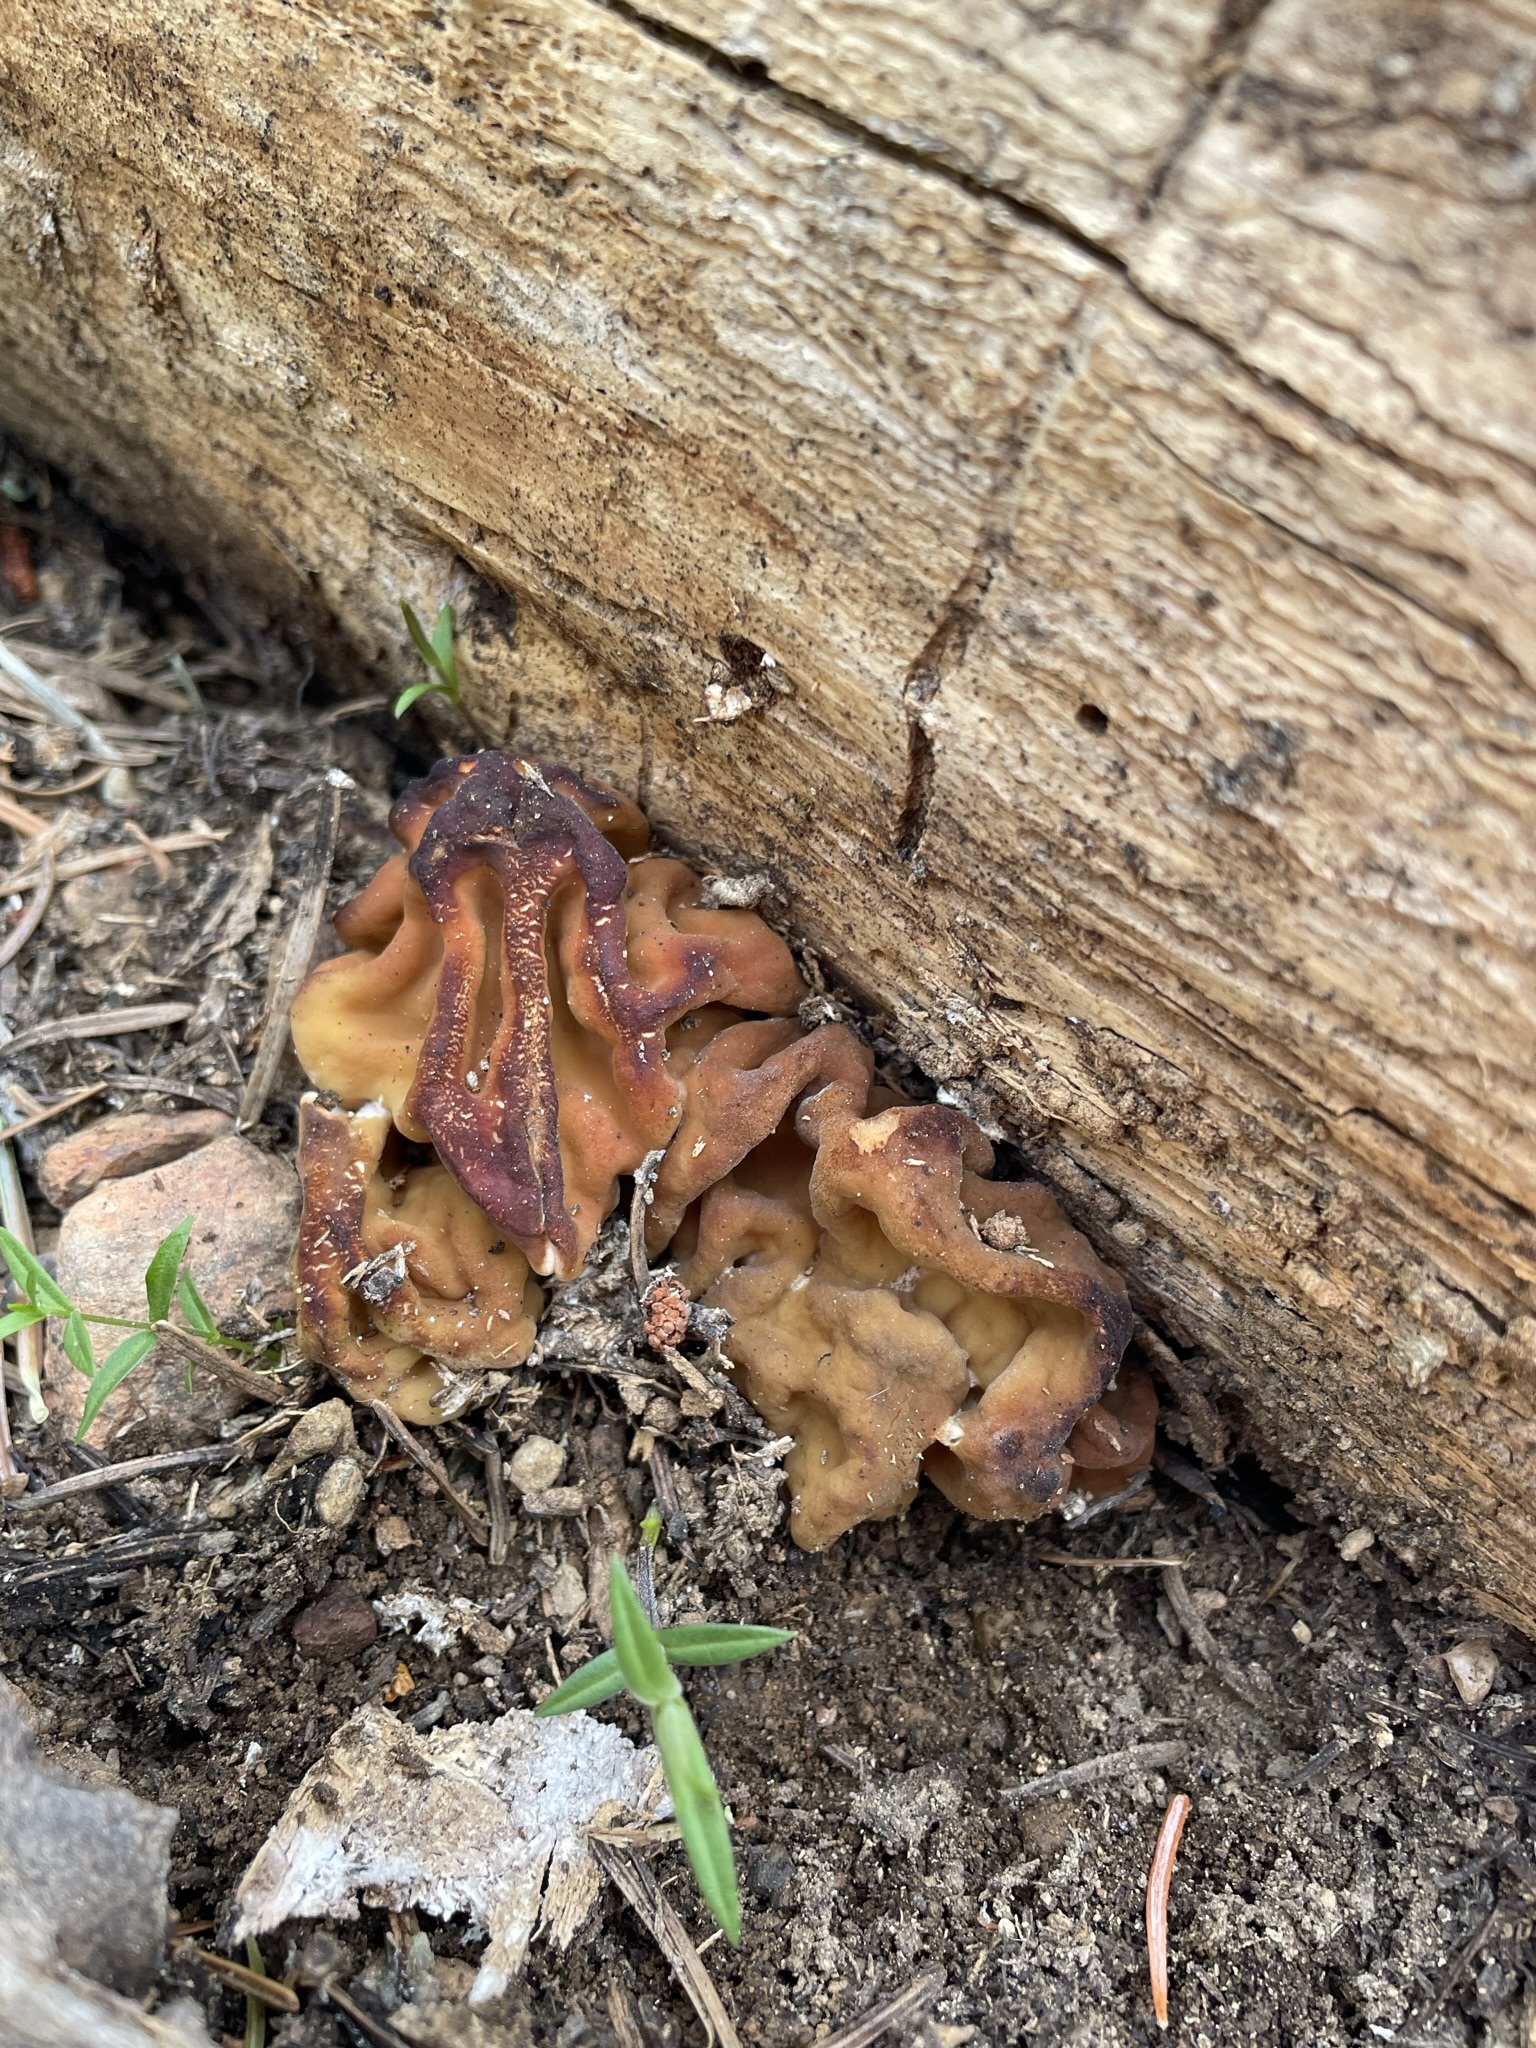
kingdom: Fungi
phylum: Ascomycota
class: Pezizomycetes
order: Pezizales
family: Discinaceae
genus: Discina
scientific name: Discina montana
